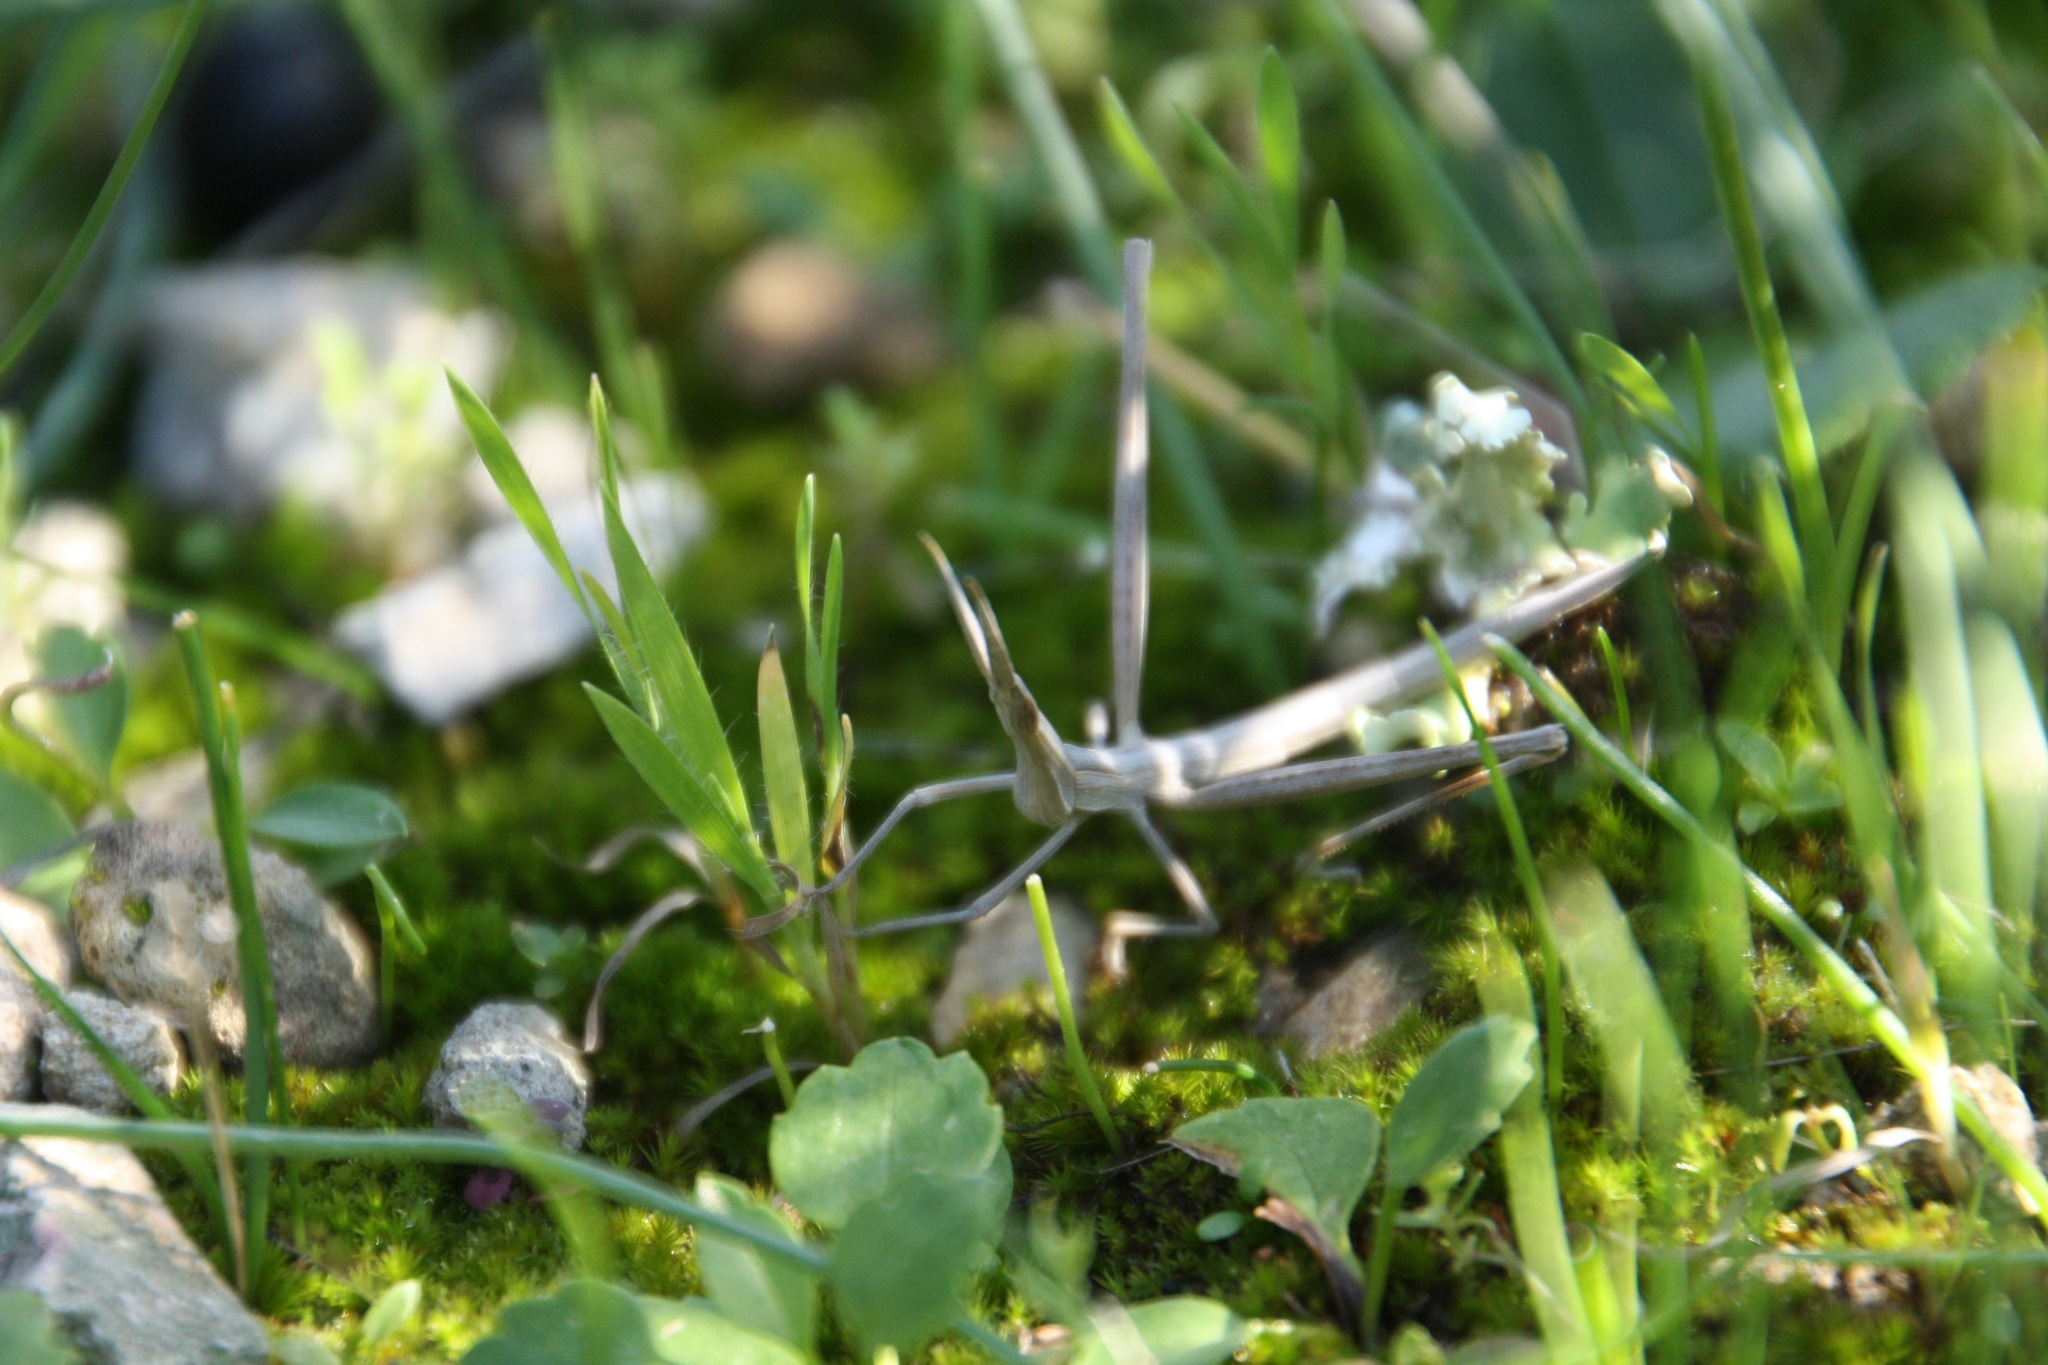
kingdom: Animalia
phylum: Arthropoda
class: Insecta
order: Orthoptera
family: Acrididae
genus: Acrida
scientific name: Acrida ungarica
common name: Common cone-headed grasshopper
